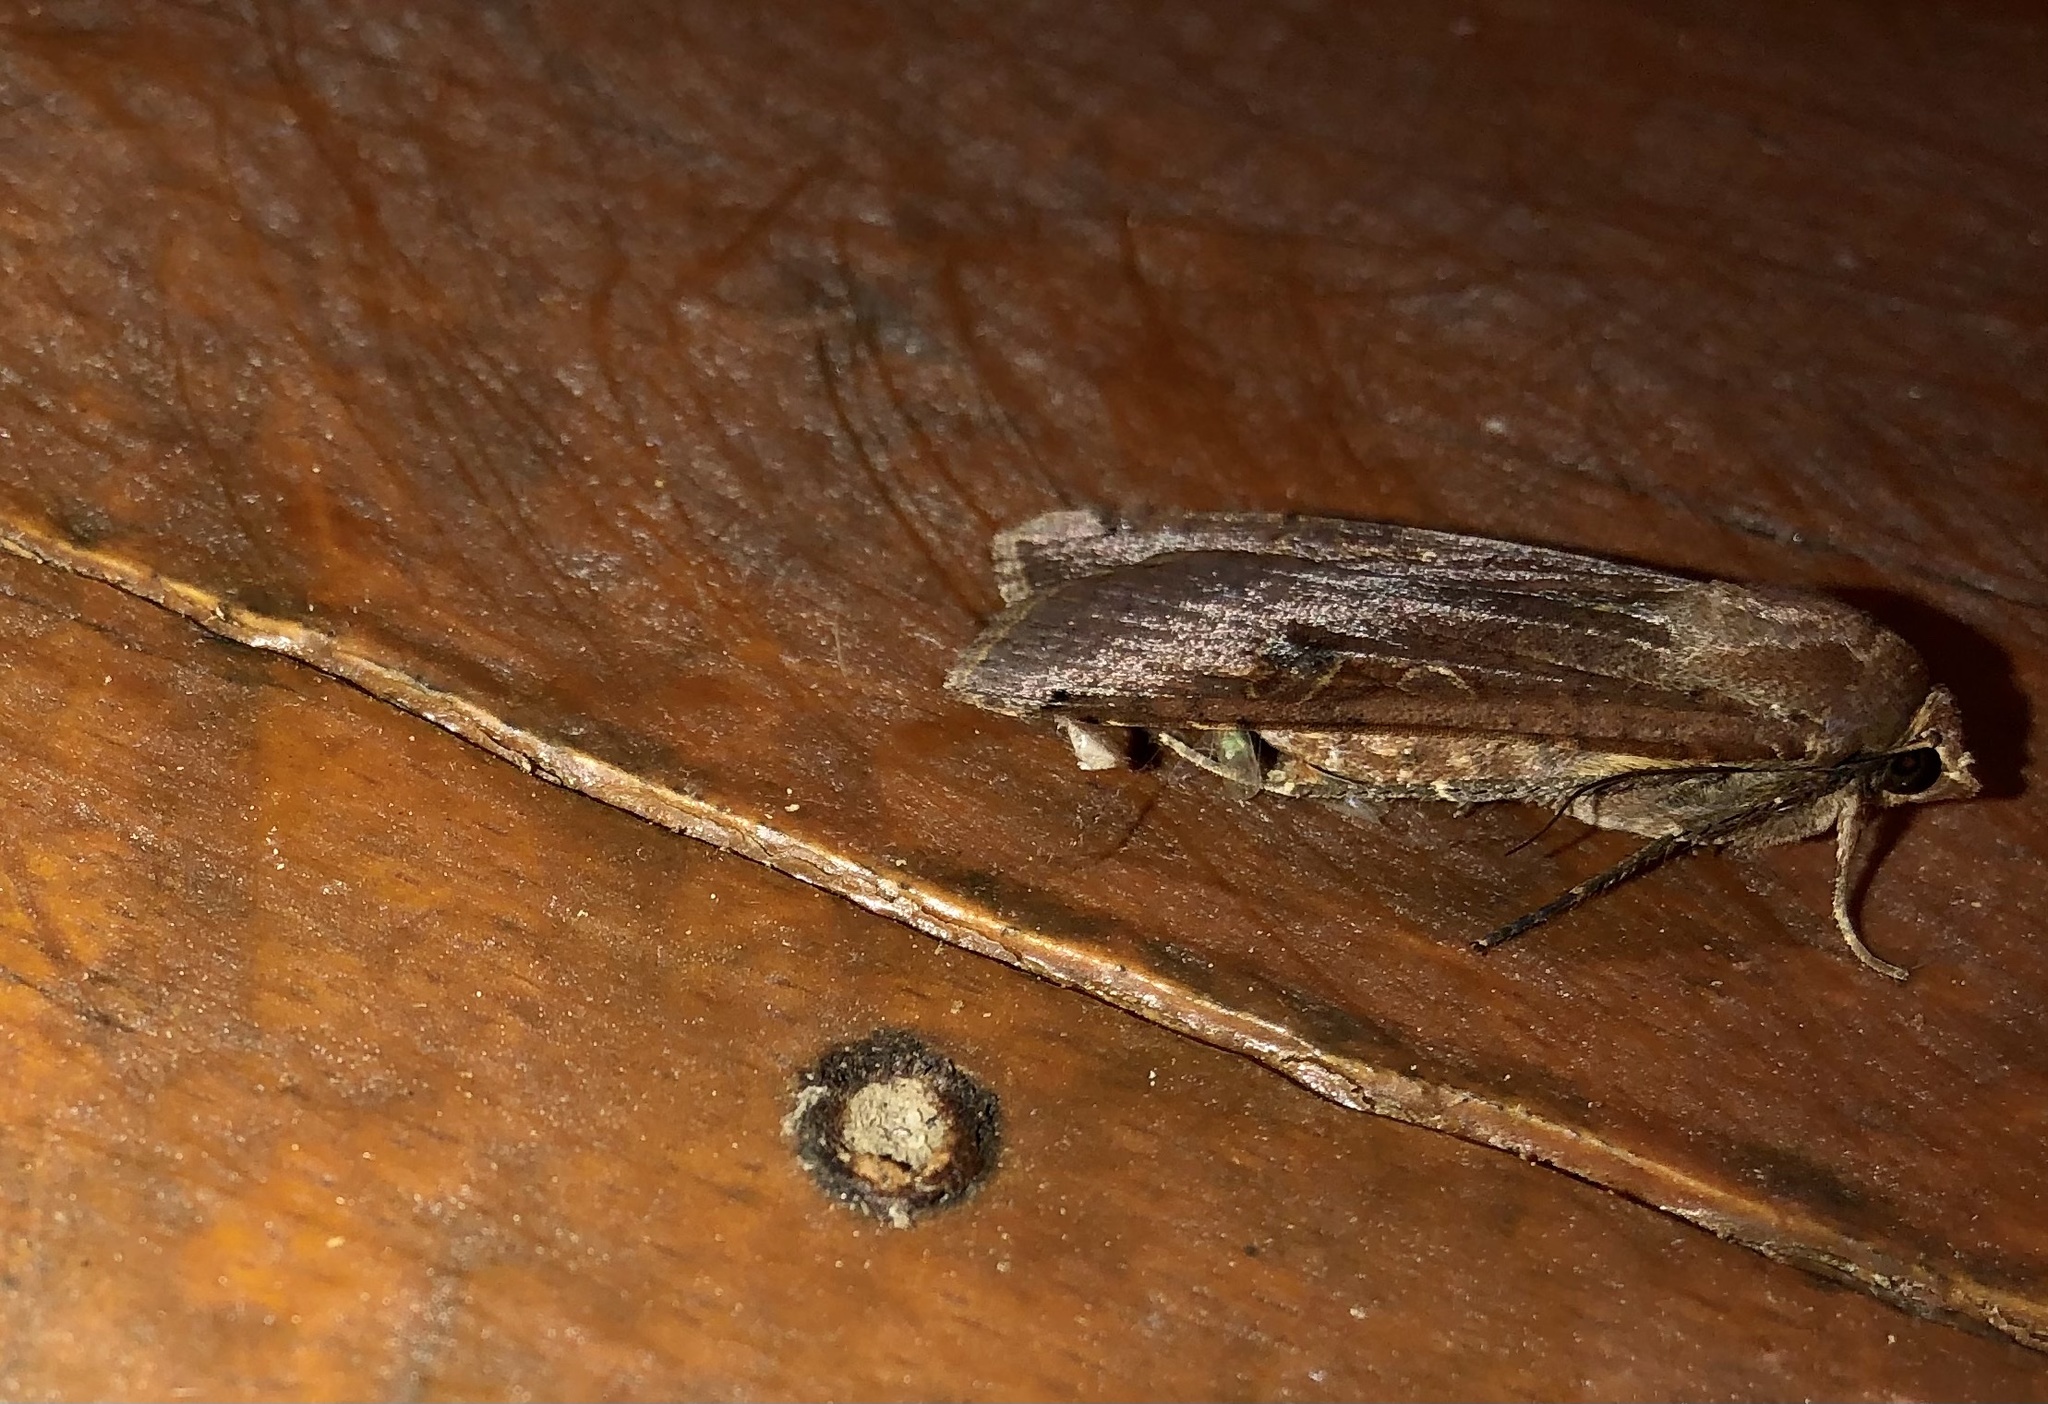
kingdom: Animalia
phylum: Arthropoda
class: Insecta
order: Lepidoptera
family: Noctuidae
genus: Noctua
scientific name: Noctua pronuba
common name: Large yellow underwing
